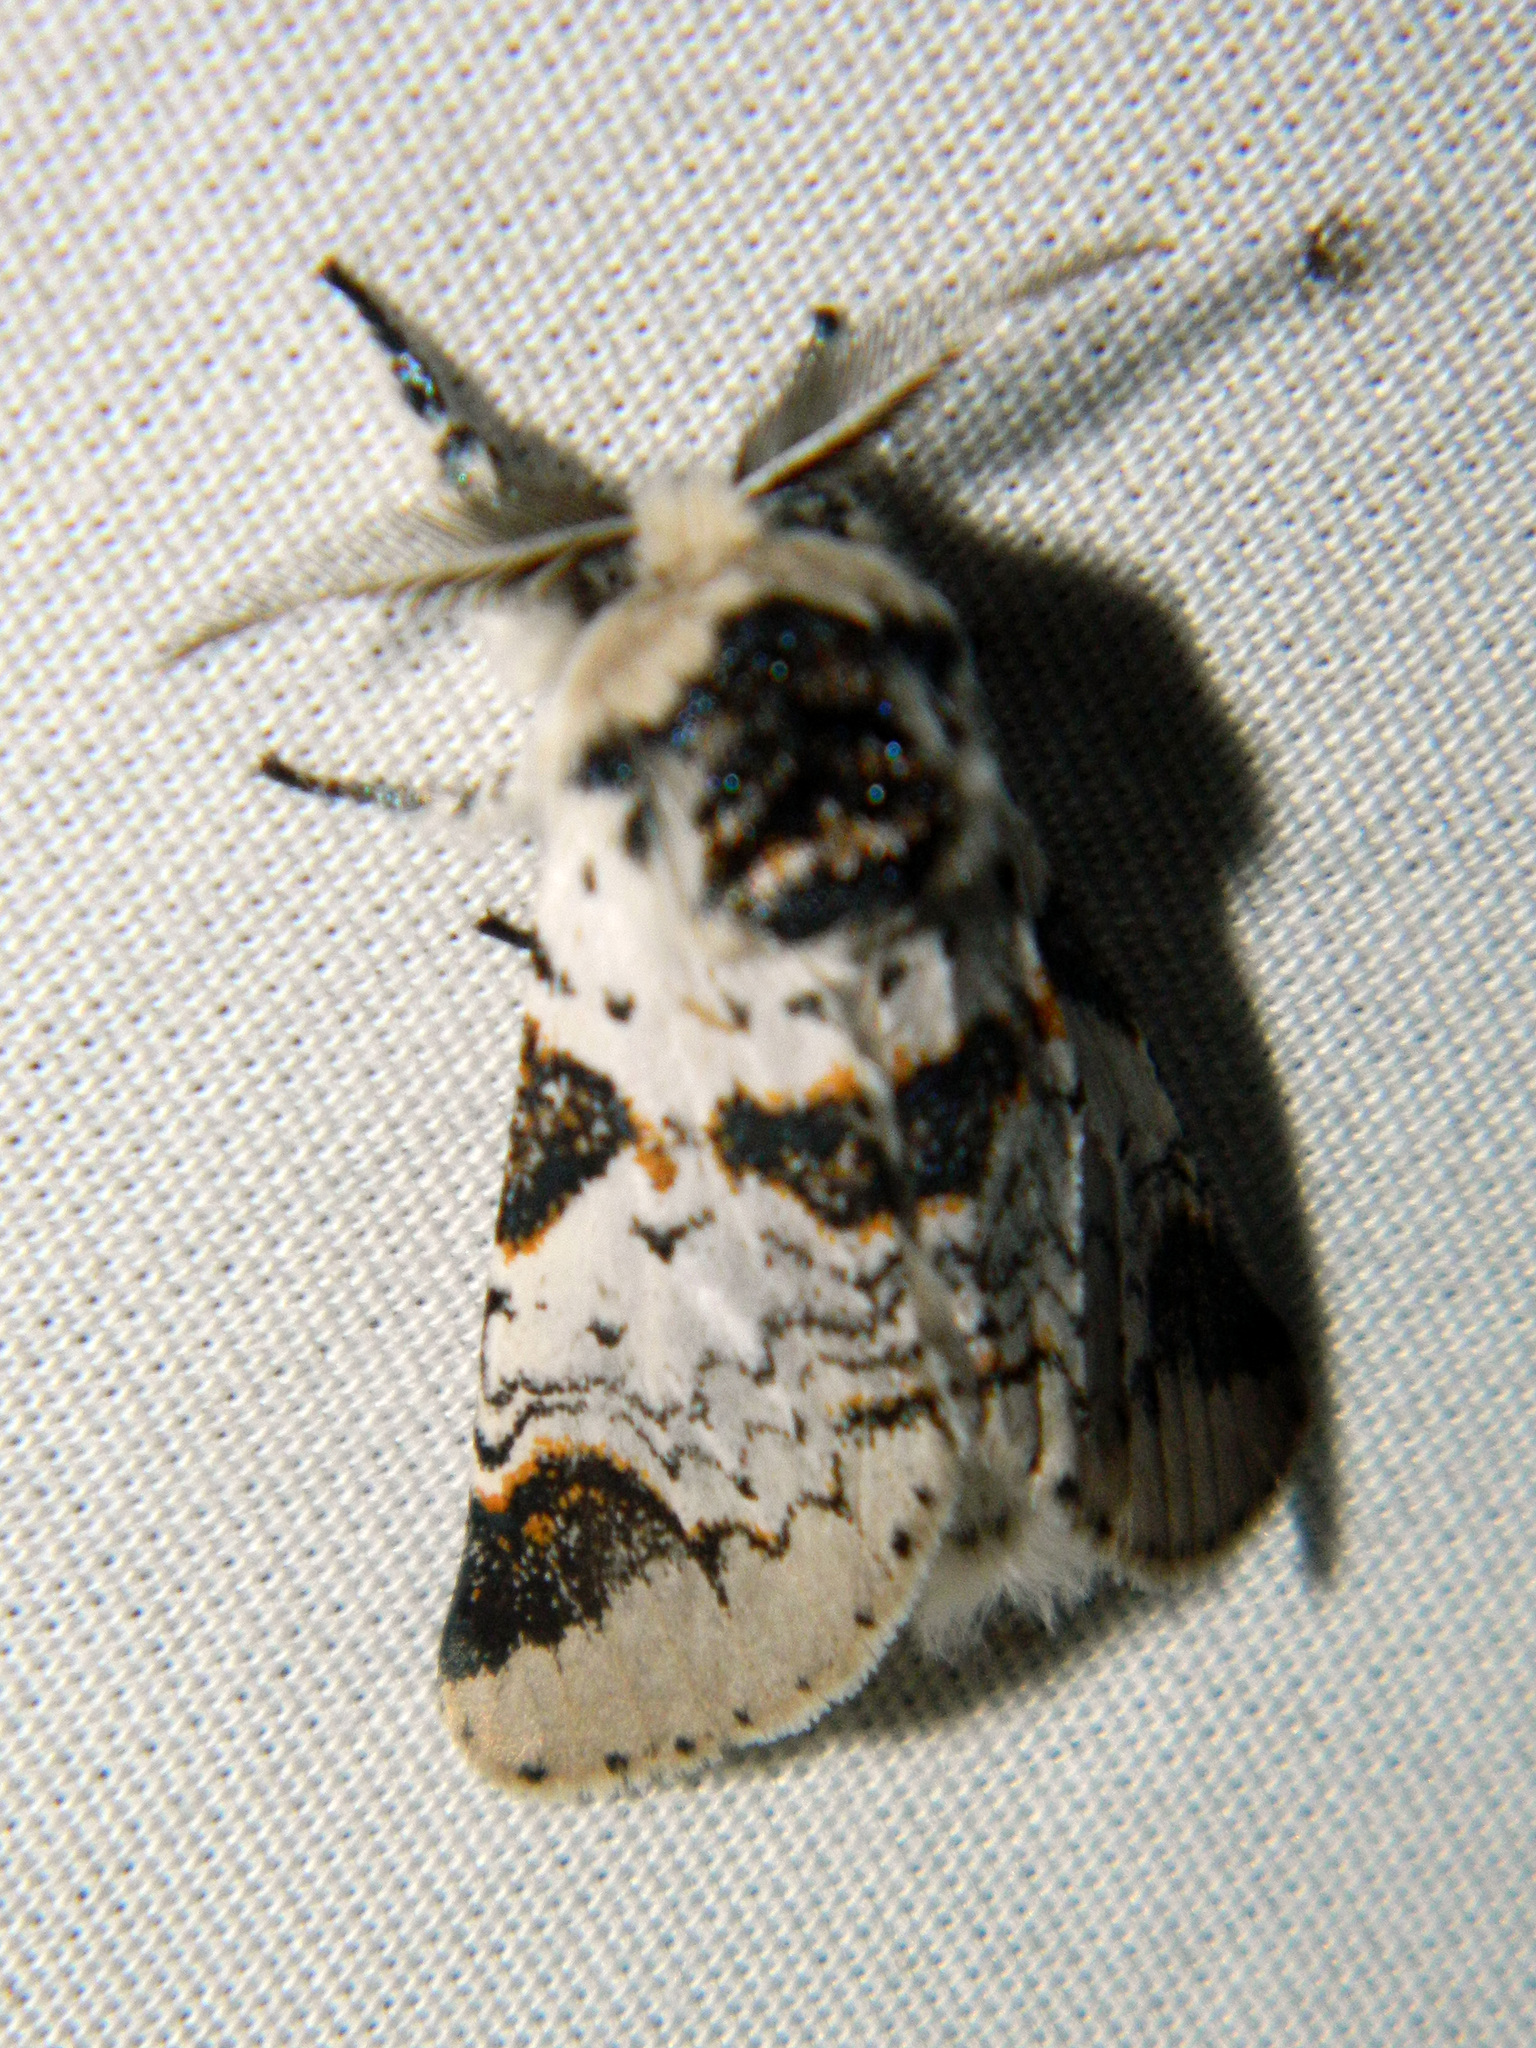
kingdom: Animalia
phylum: Arthropoda
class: Insecta
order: Lepidoptera
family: Notodontidae
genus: Furcula
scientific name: Furcula scolopendrina
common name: Zigzag furcula moth
